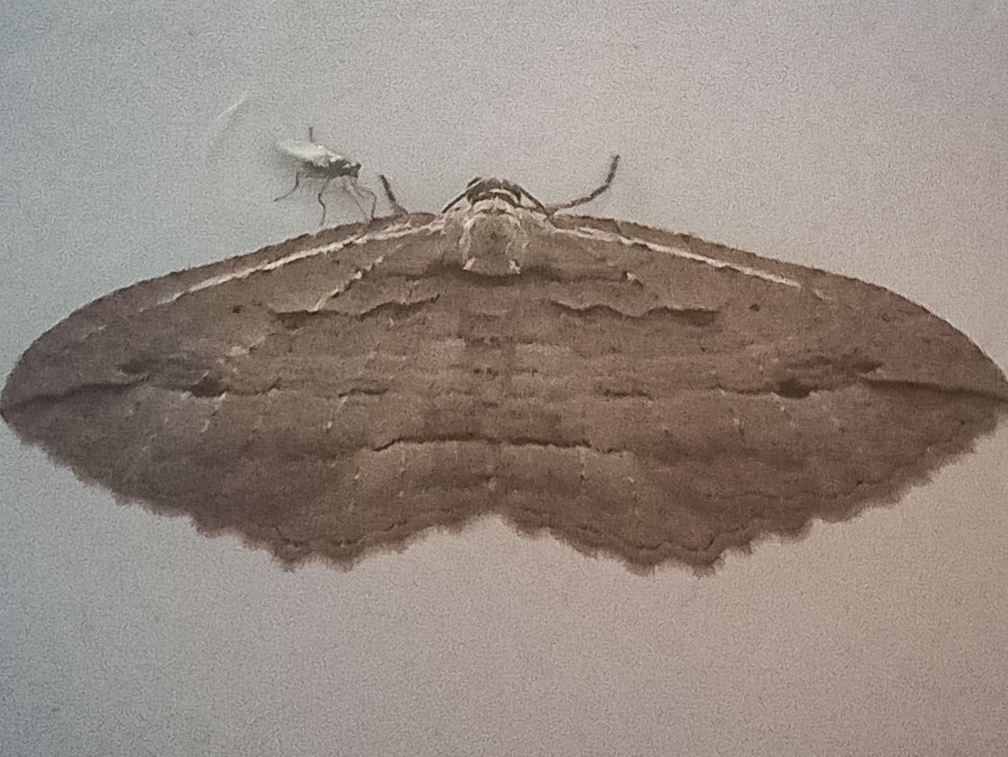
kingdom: Animalia
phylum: Arthropoda
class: Insecta
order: Lepidoptera
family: Geometridae
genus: Austrocidaria
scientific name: Austrocidaria gobiata
